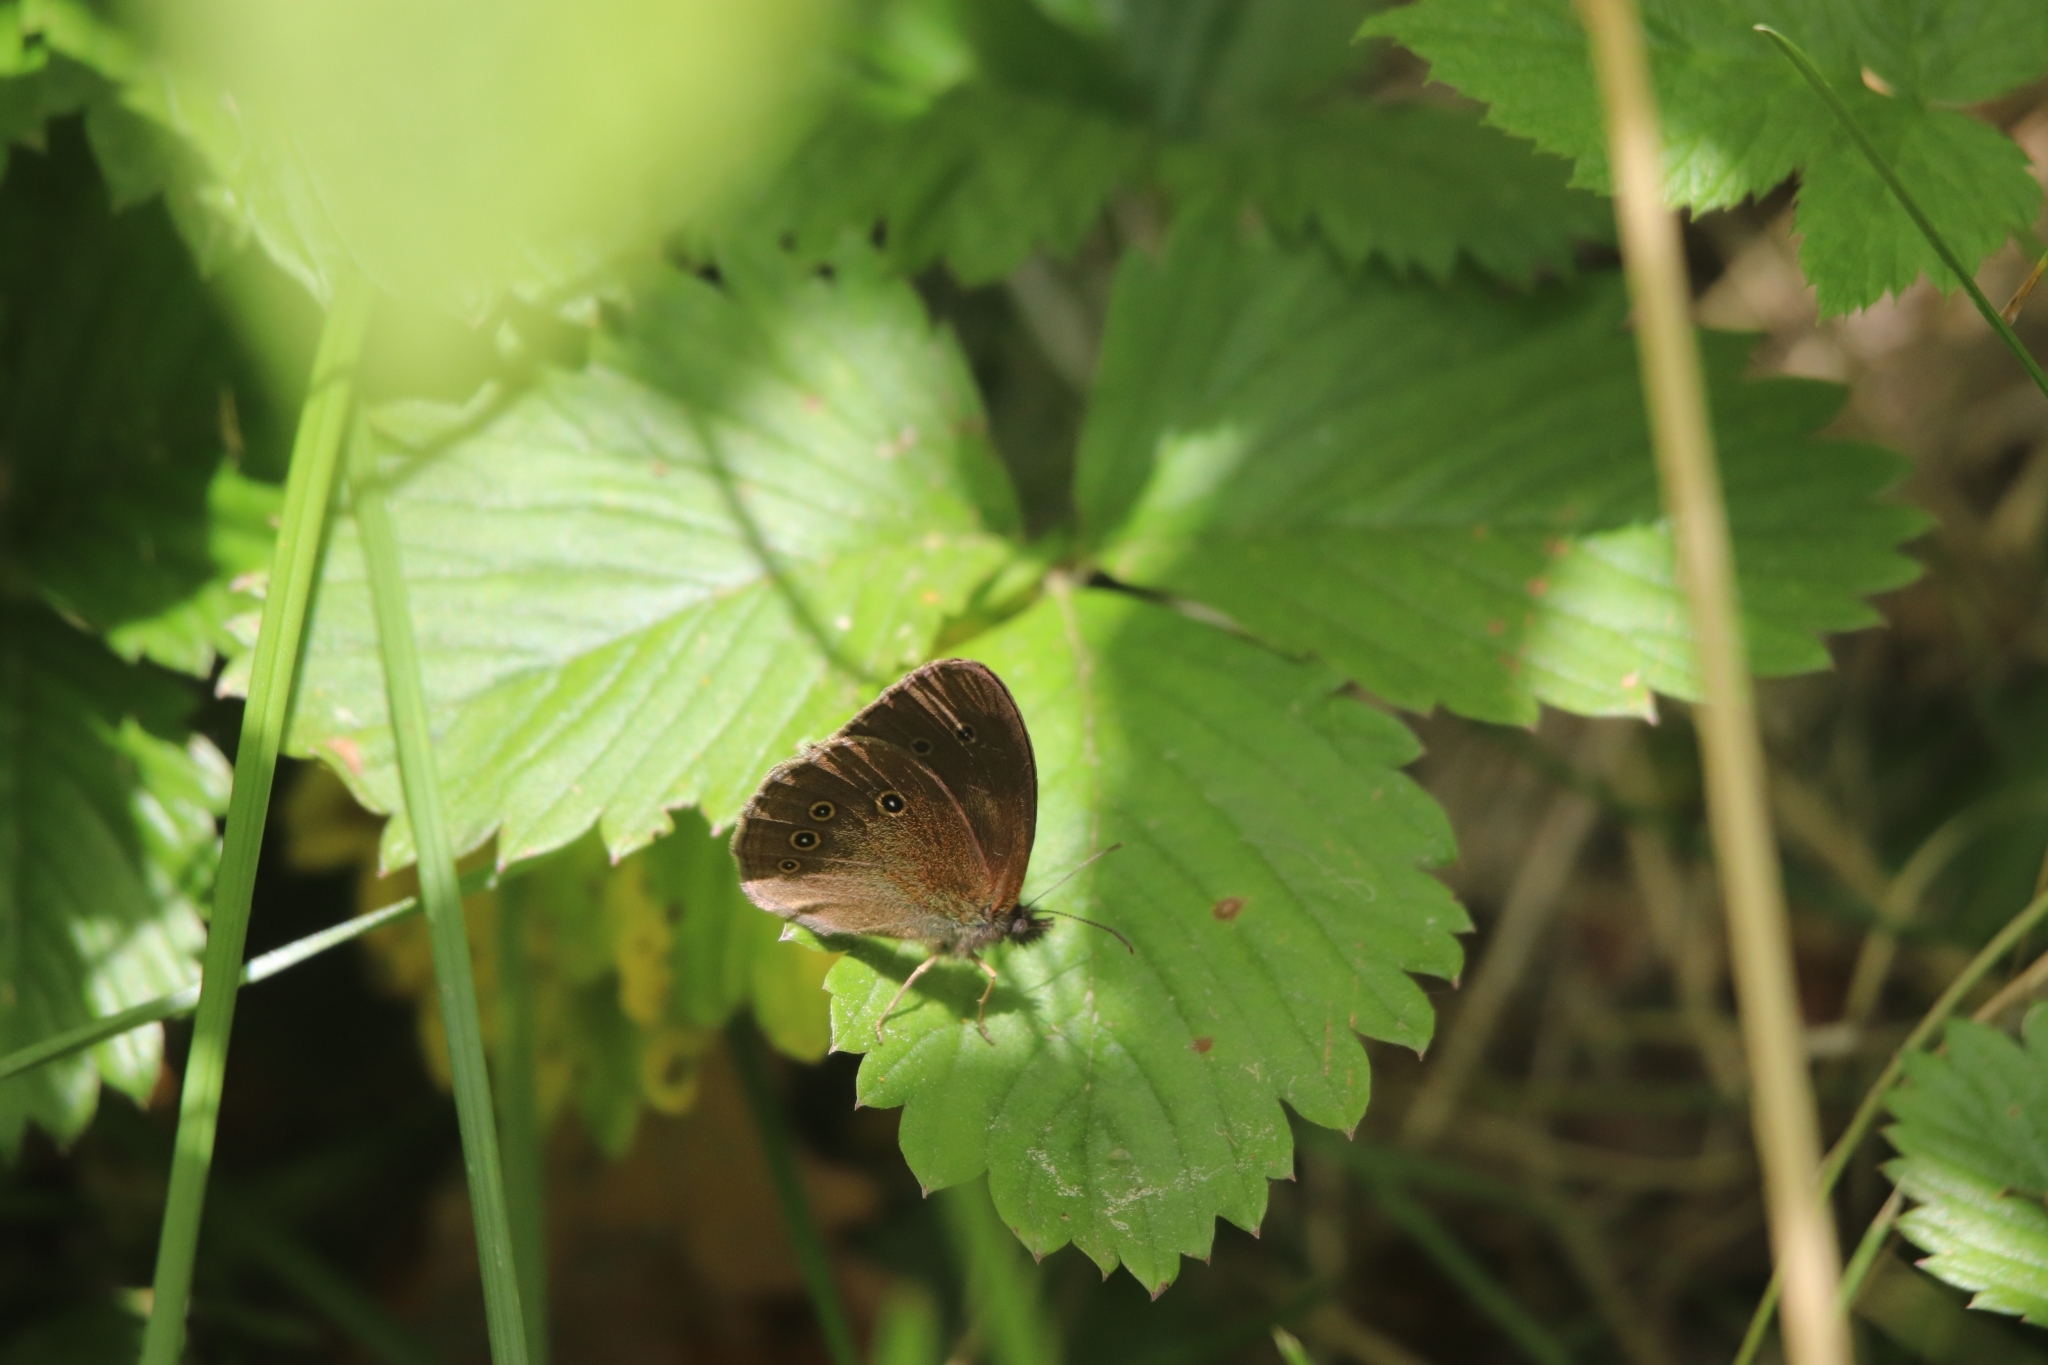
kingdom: Animalia
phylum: Arthropoda
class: Insecta
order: Lepidoptera
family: Nymphalidae
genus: Aphantopus
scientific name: Aphantopus hyperantus
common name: Ringlet
